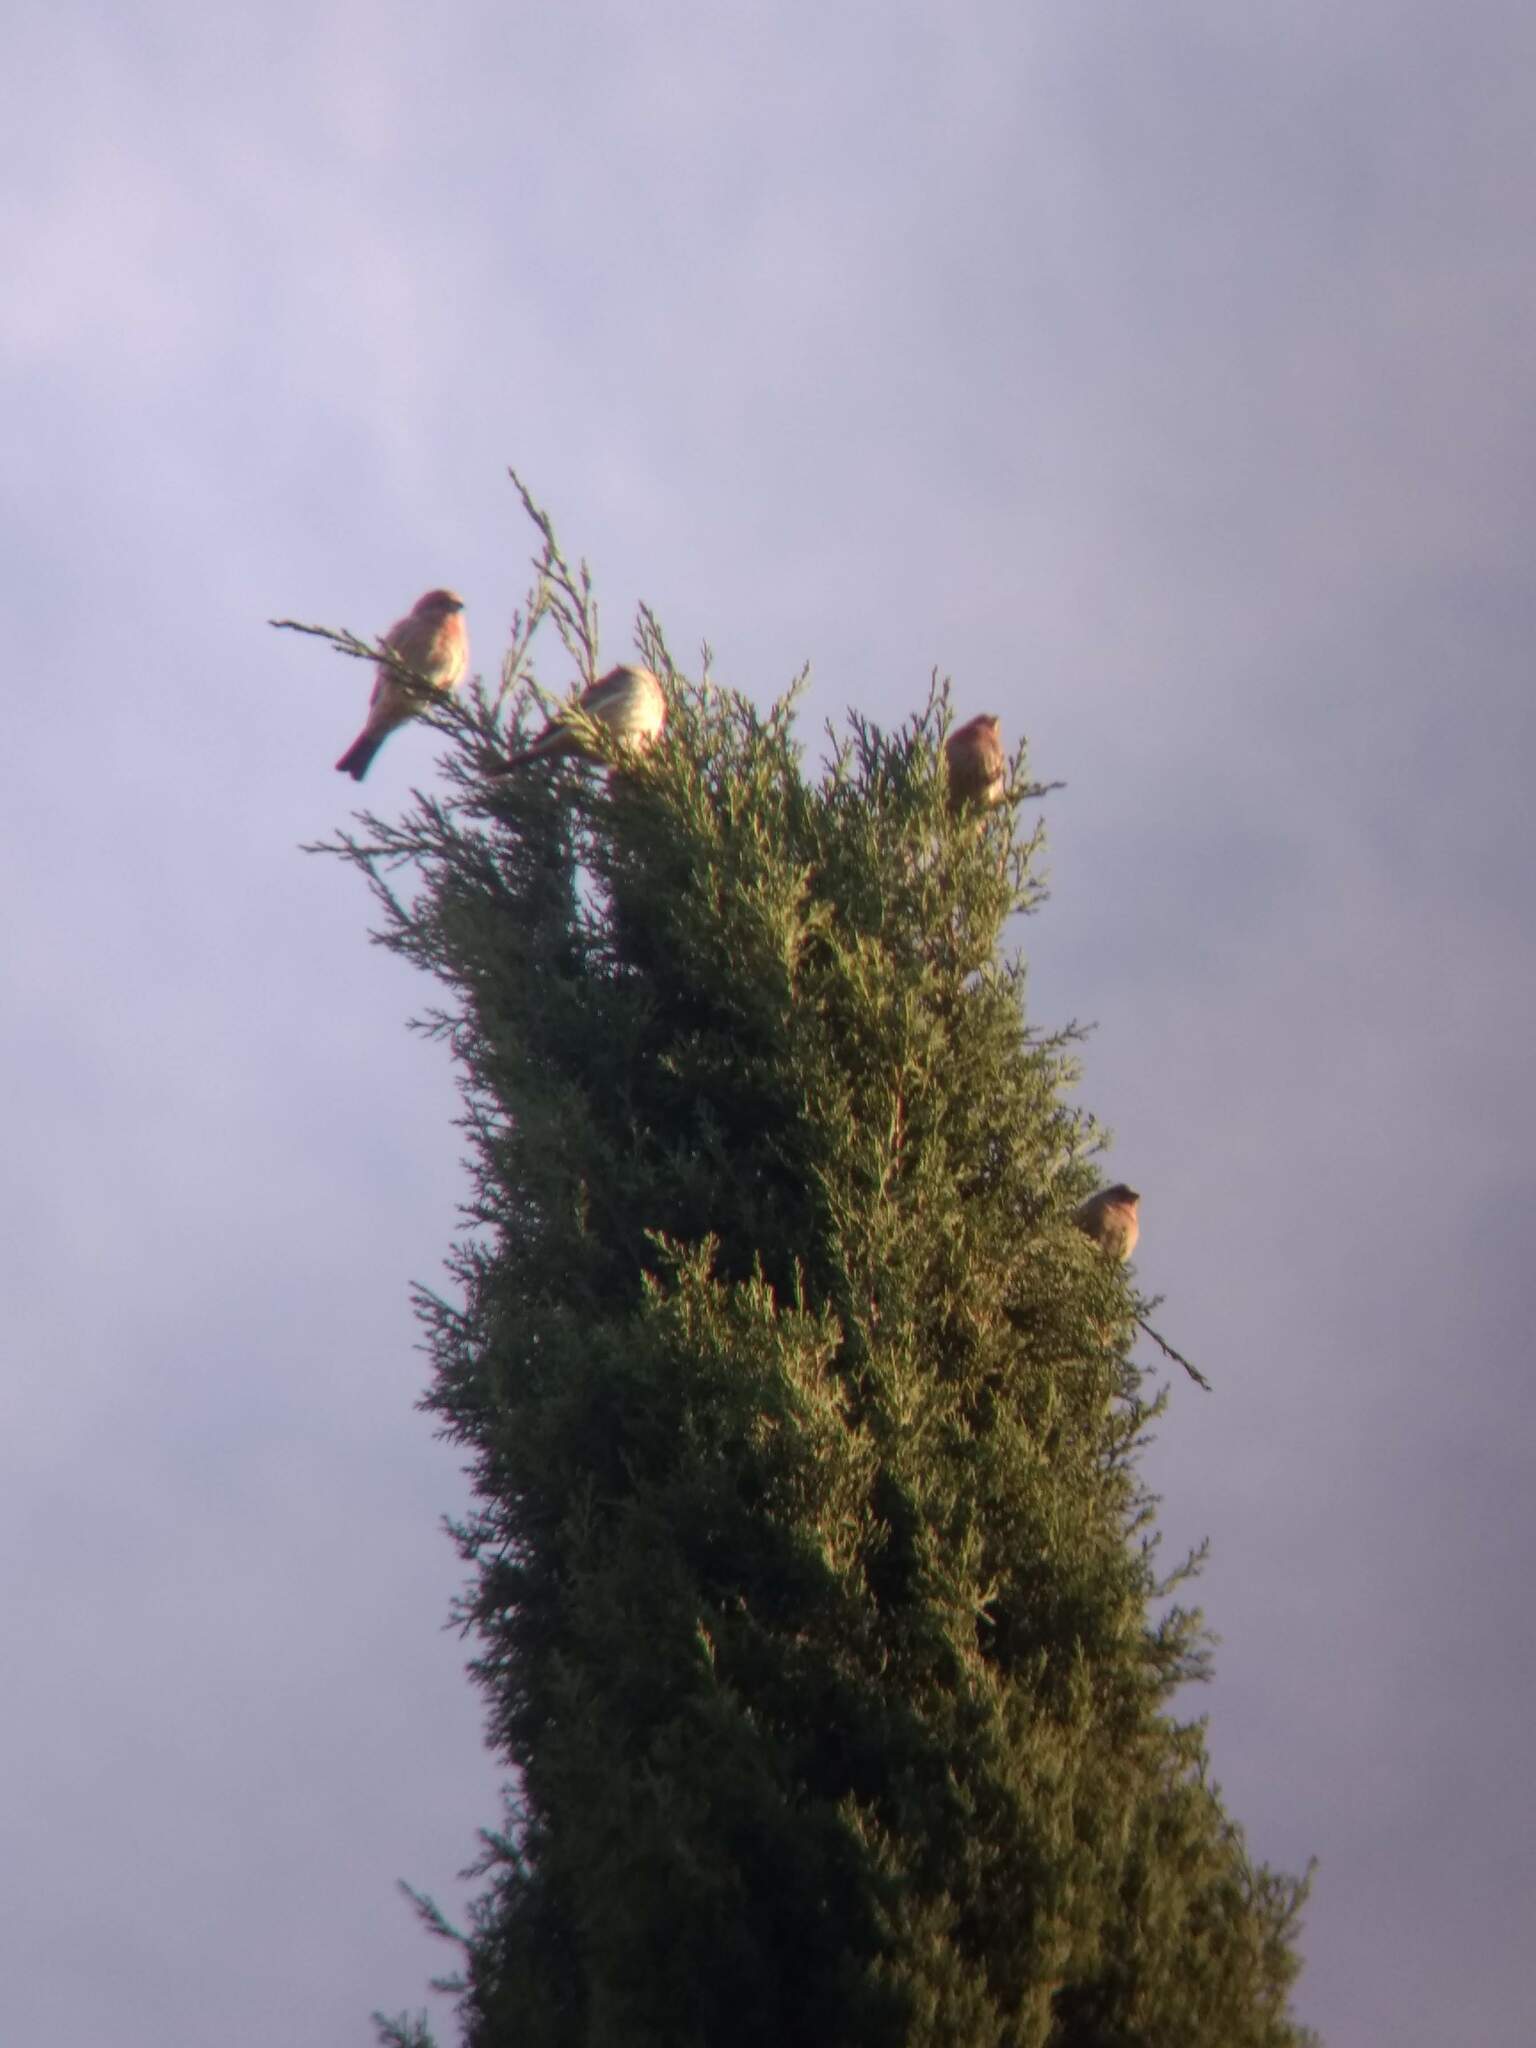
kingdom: Animalia
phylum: Chordata
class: Aves
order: Passeriformes
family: Fringillidae
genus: Haemorhous
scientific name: Haemorhous mexicanus
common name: House finch
